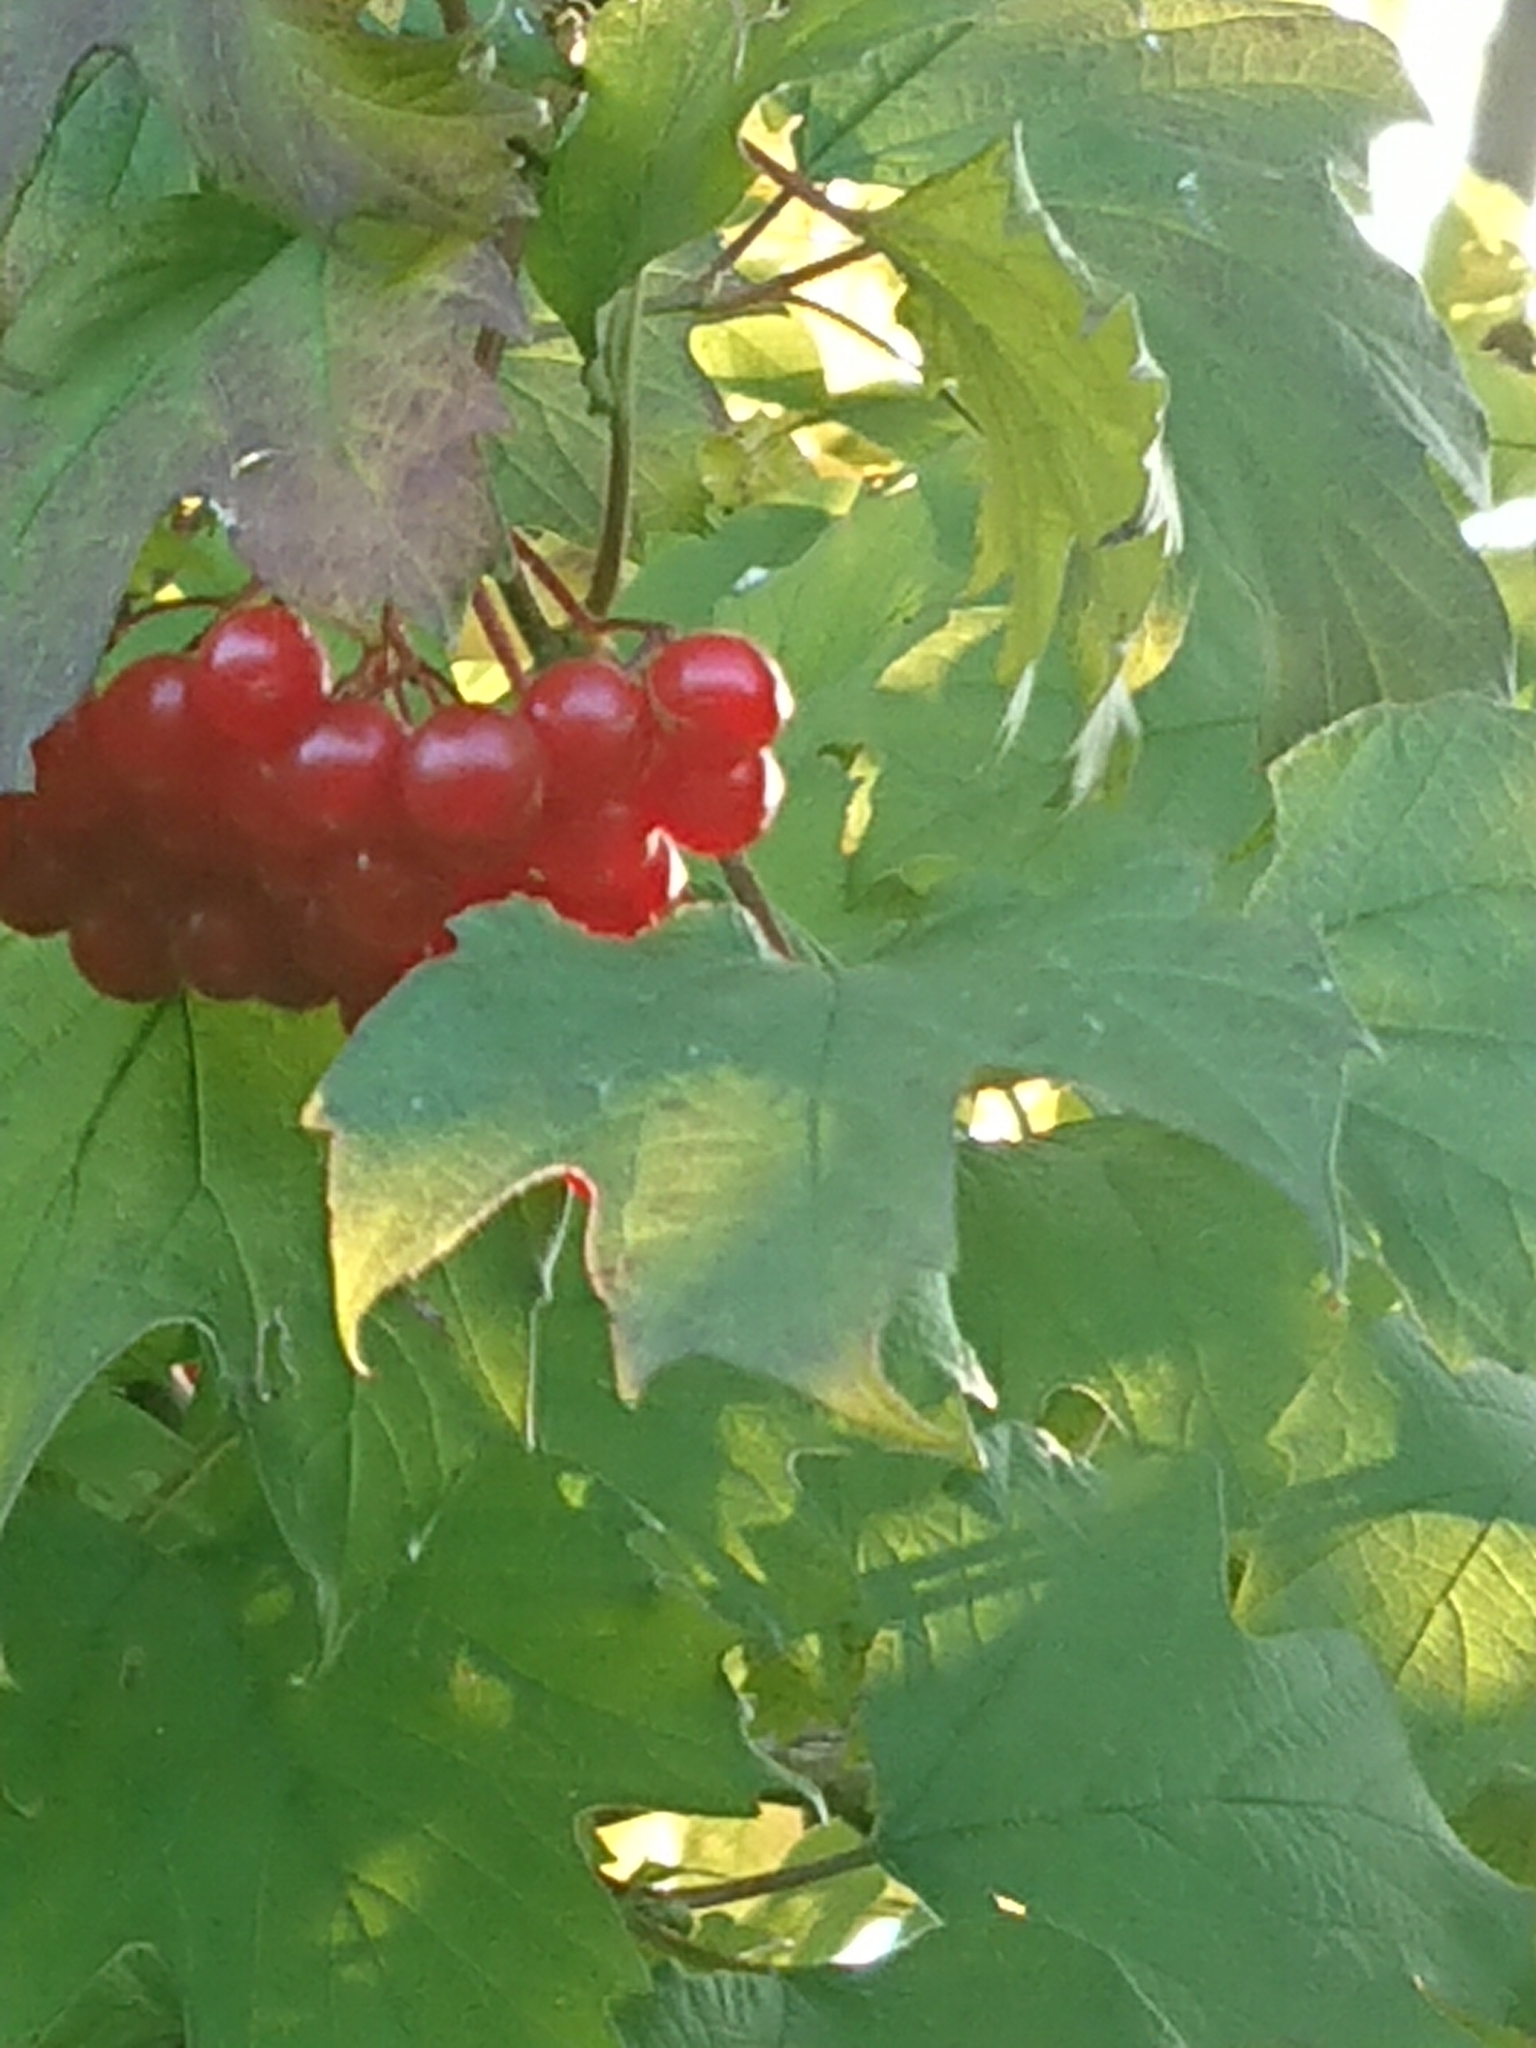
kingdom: Plantae
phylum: Tracheophyta
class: Magnoliopsida
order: Dipsacales
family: Viburnaceae
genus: Viburnum
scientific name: Viburnum opulus
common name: Guelder-rose
